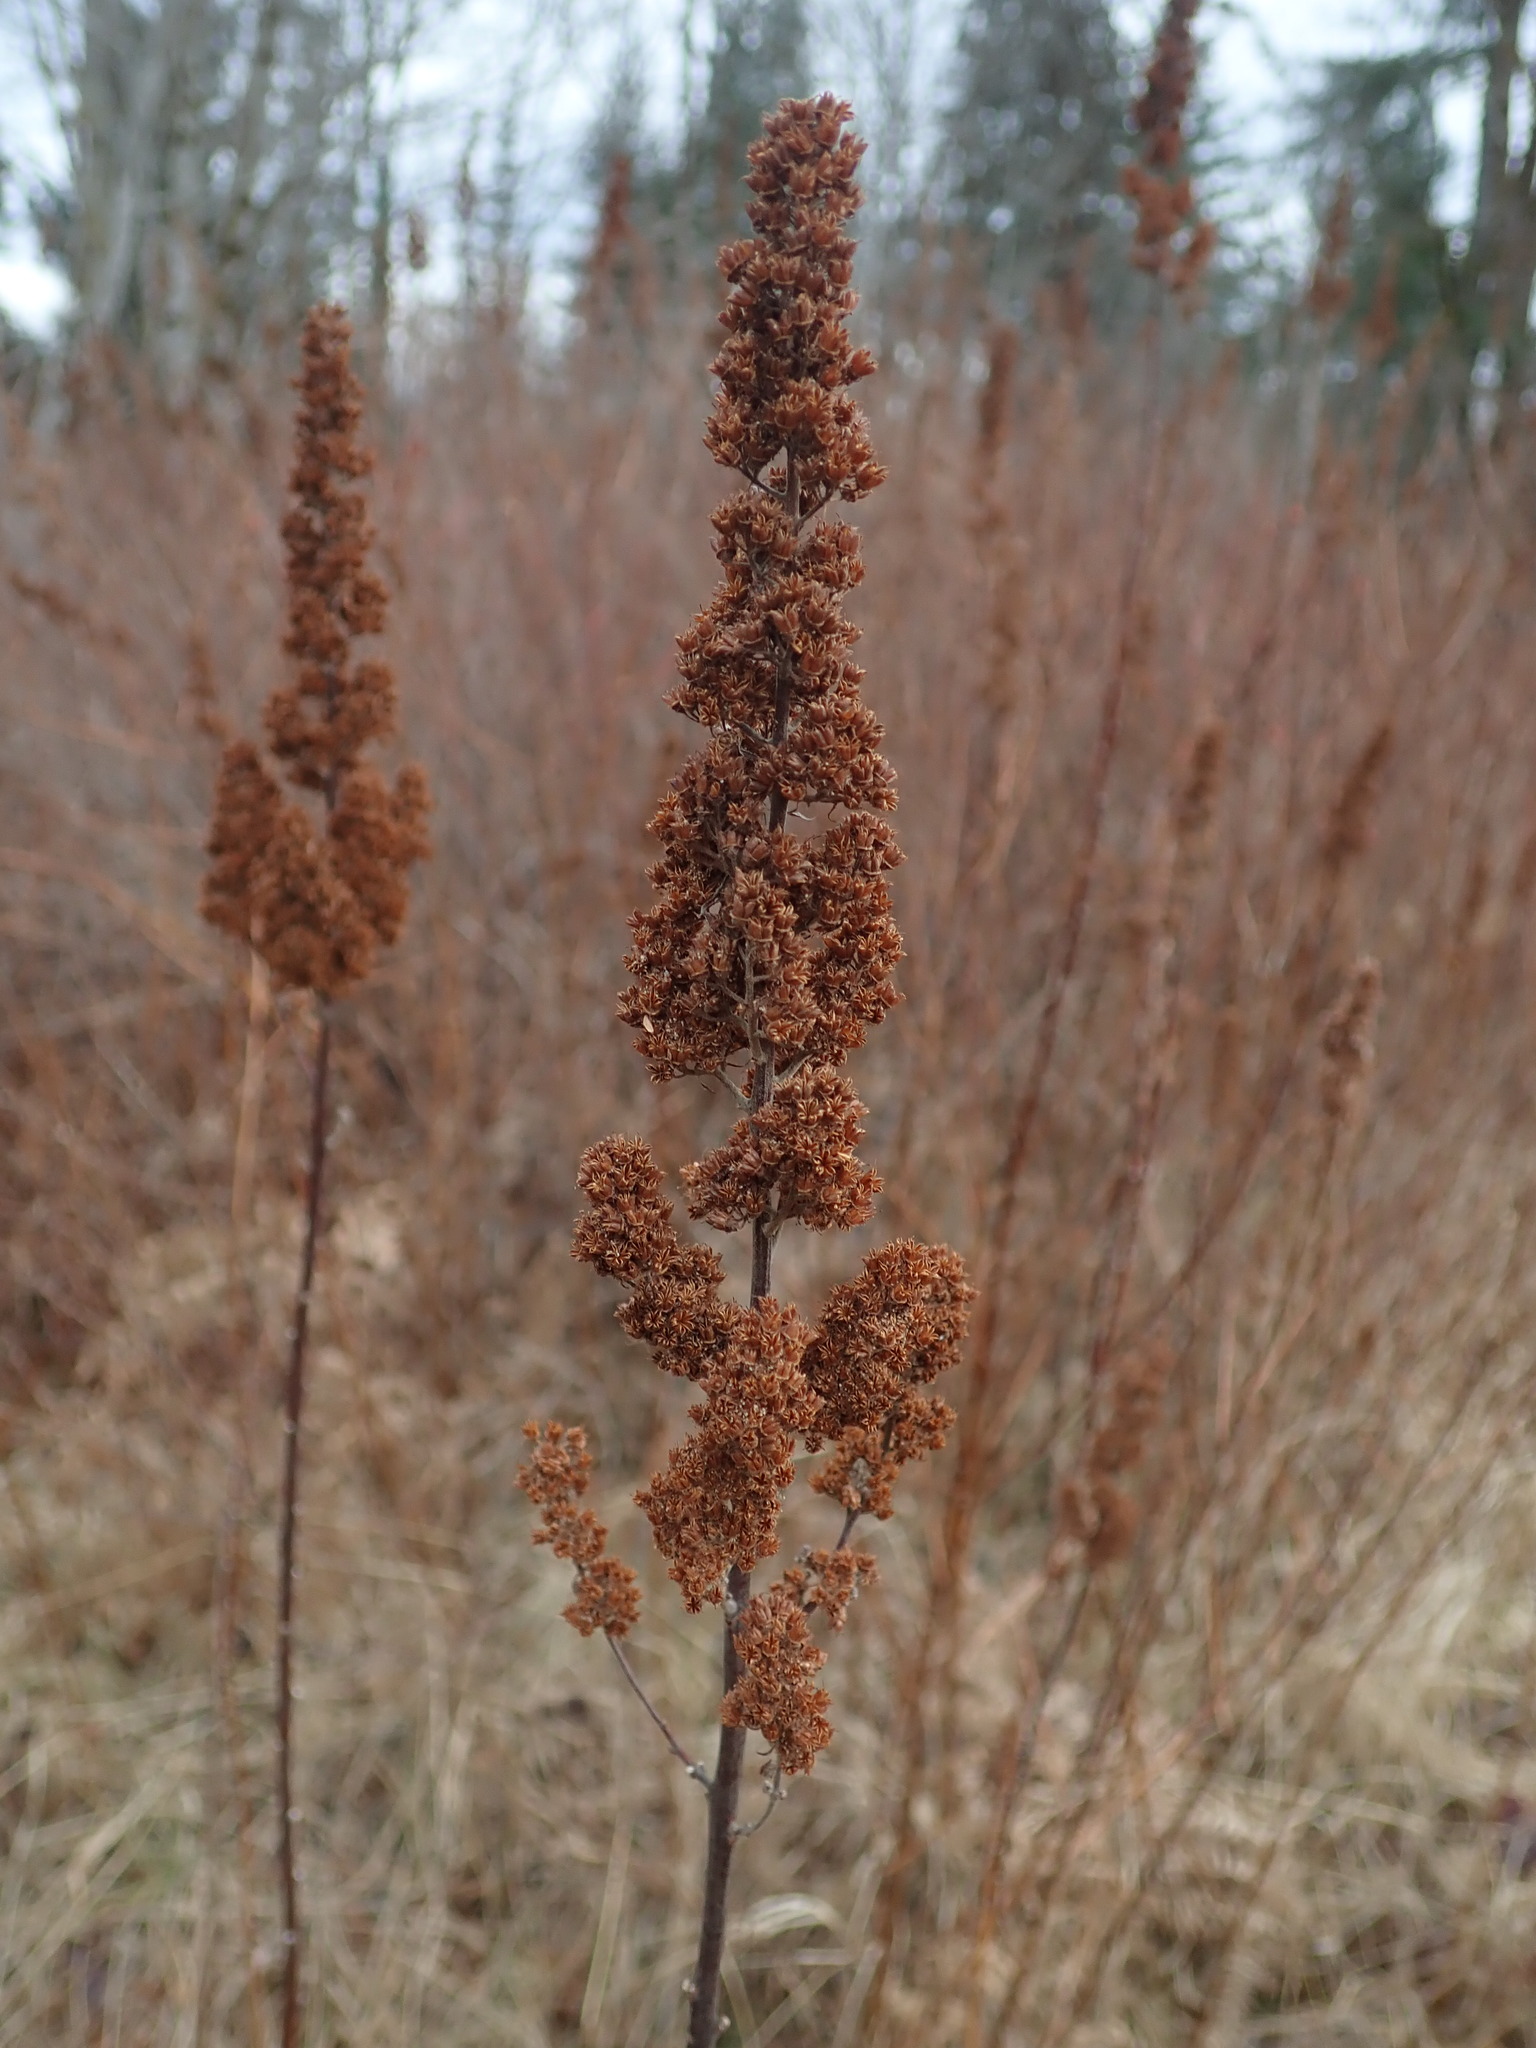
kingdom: Plantae
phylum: Tracheophyta
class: Magnoliopsida
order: Rosales
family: Rosaceae
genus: Spiraea
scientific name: Spiraea douglasii
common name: Steeplebush
